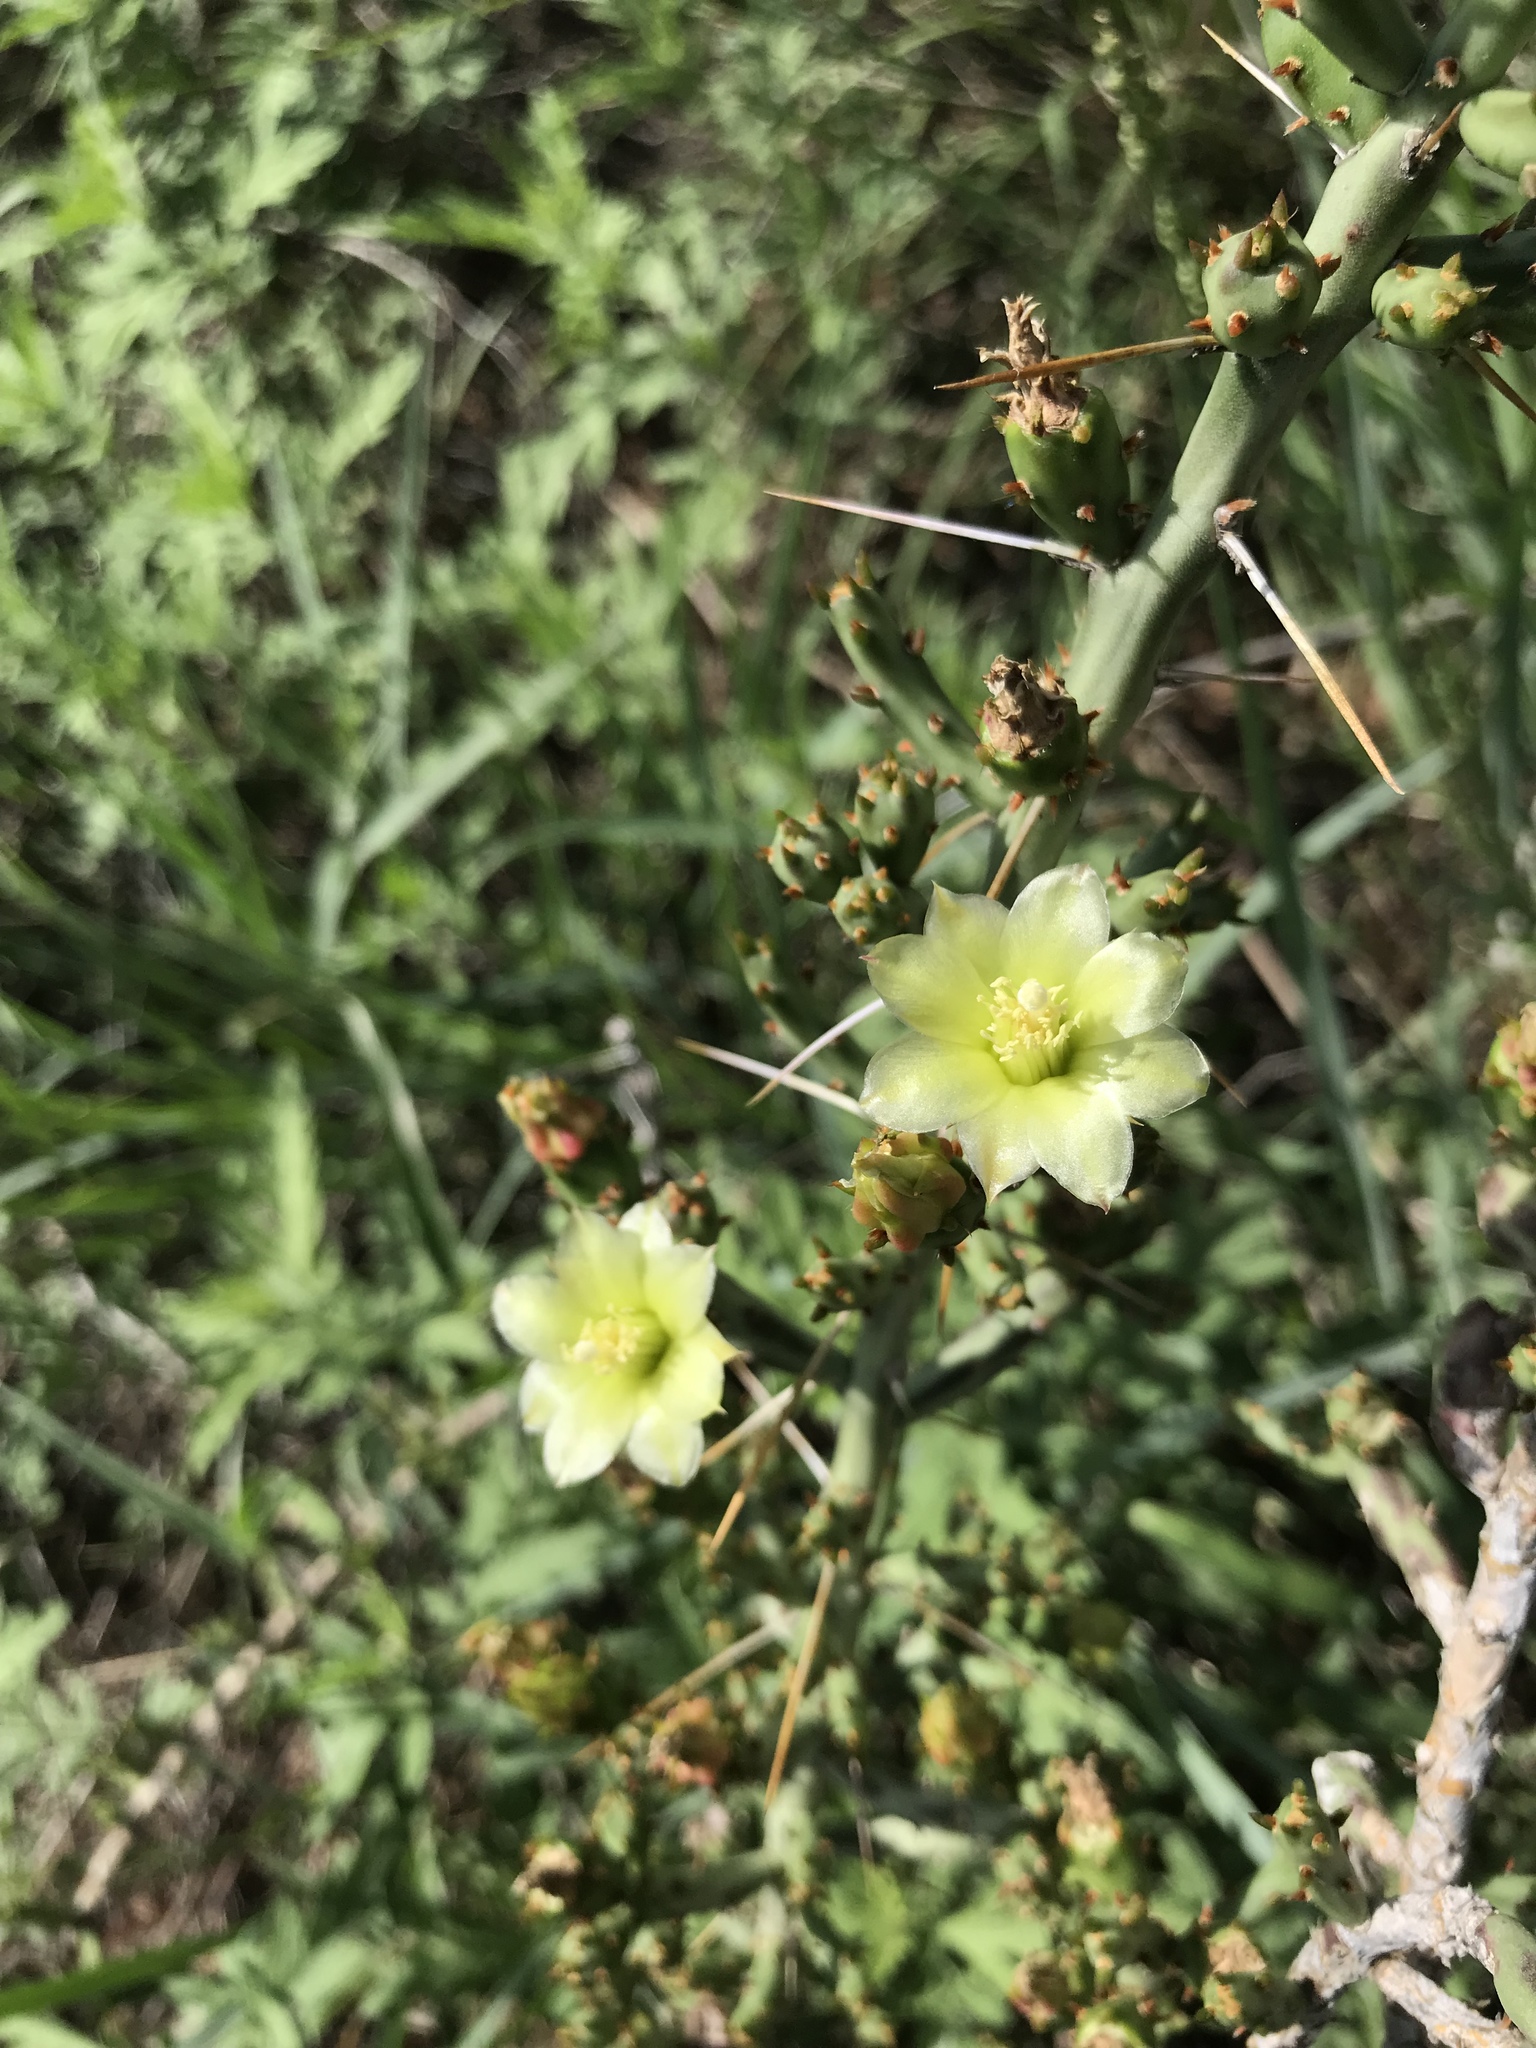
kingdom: Plantae
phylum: Tracheophyta
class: Magnoliopsida
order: Caryophyllales
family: Cactaceae
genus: Cylindropuntia
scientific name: Cylindropuntia leptocaulis
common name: Christmas cactus
